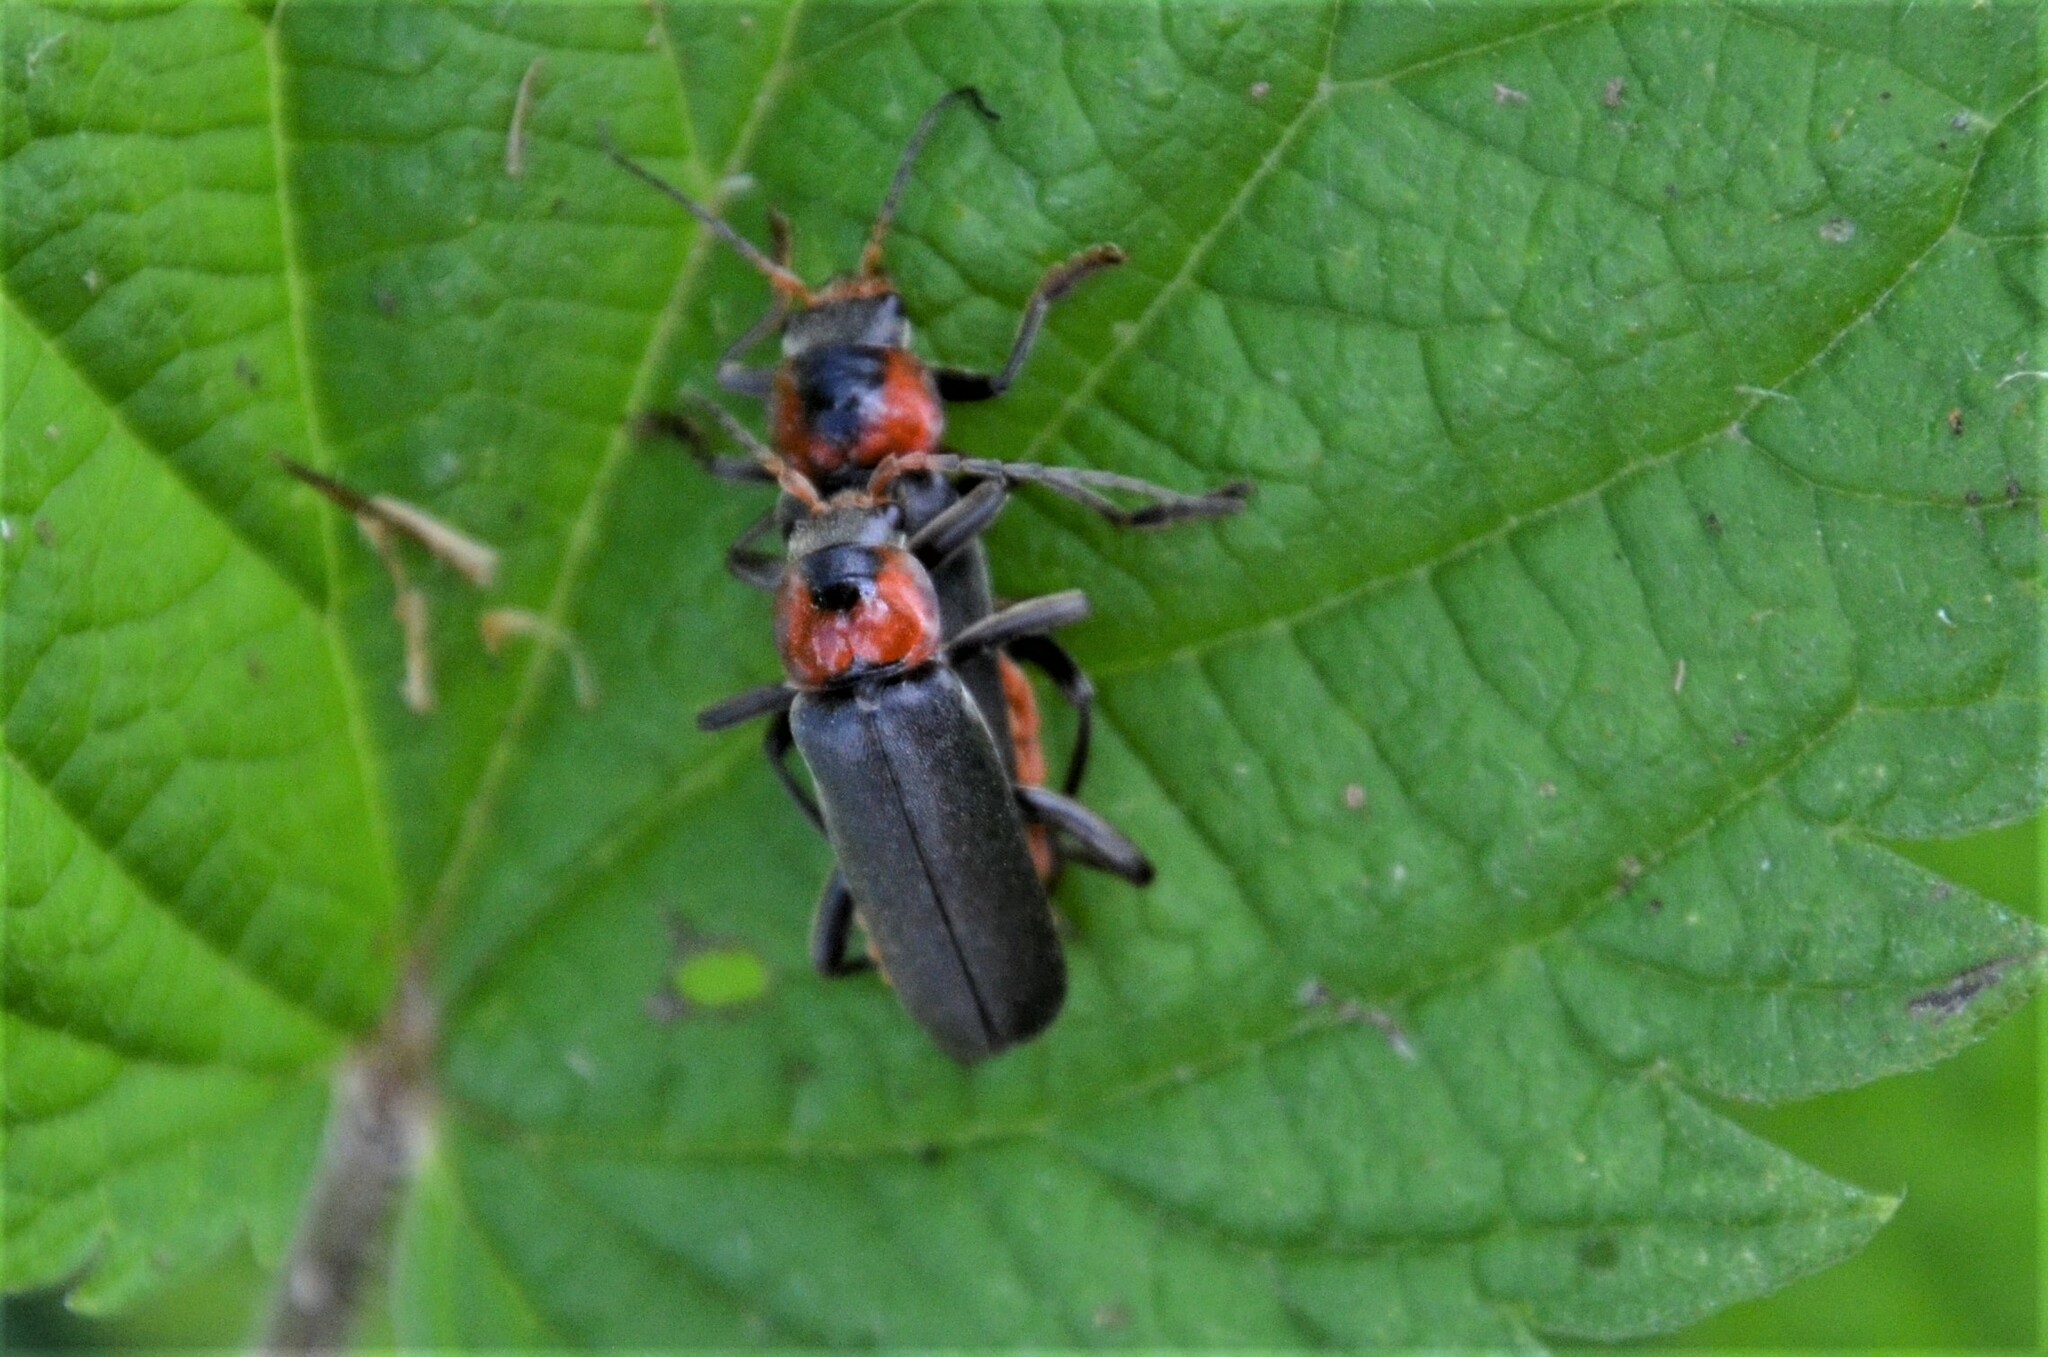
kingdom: Animalia
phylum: Arthropoda
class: Insecta
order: Coleoptera
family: Cantharidae
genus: Cantharis
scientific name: Cantharis fusca
